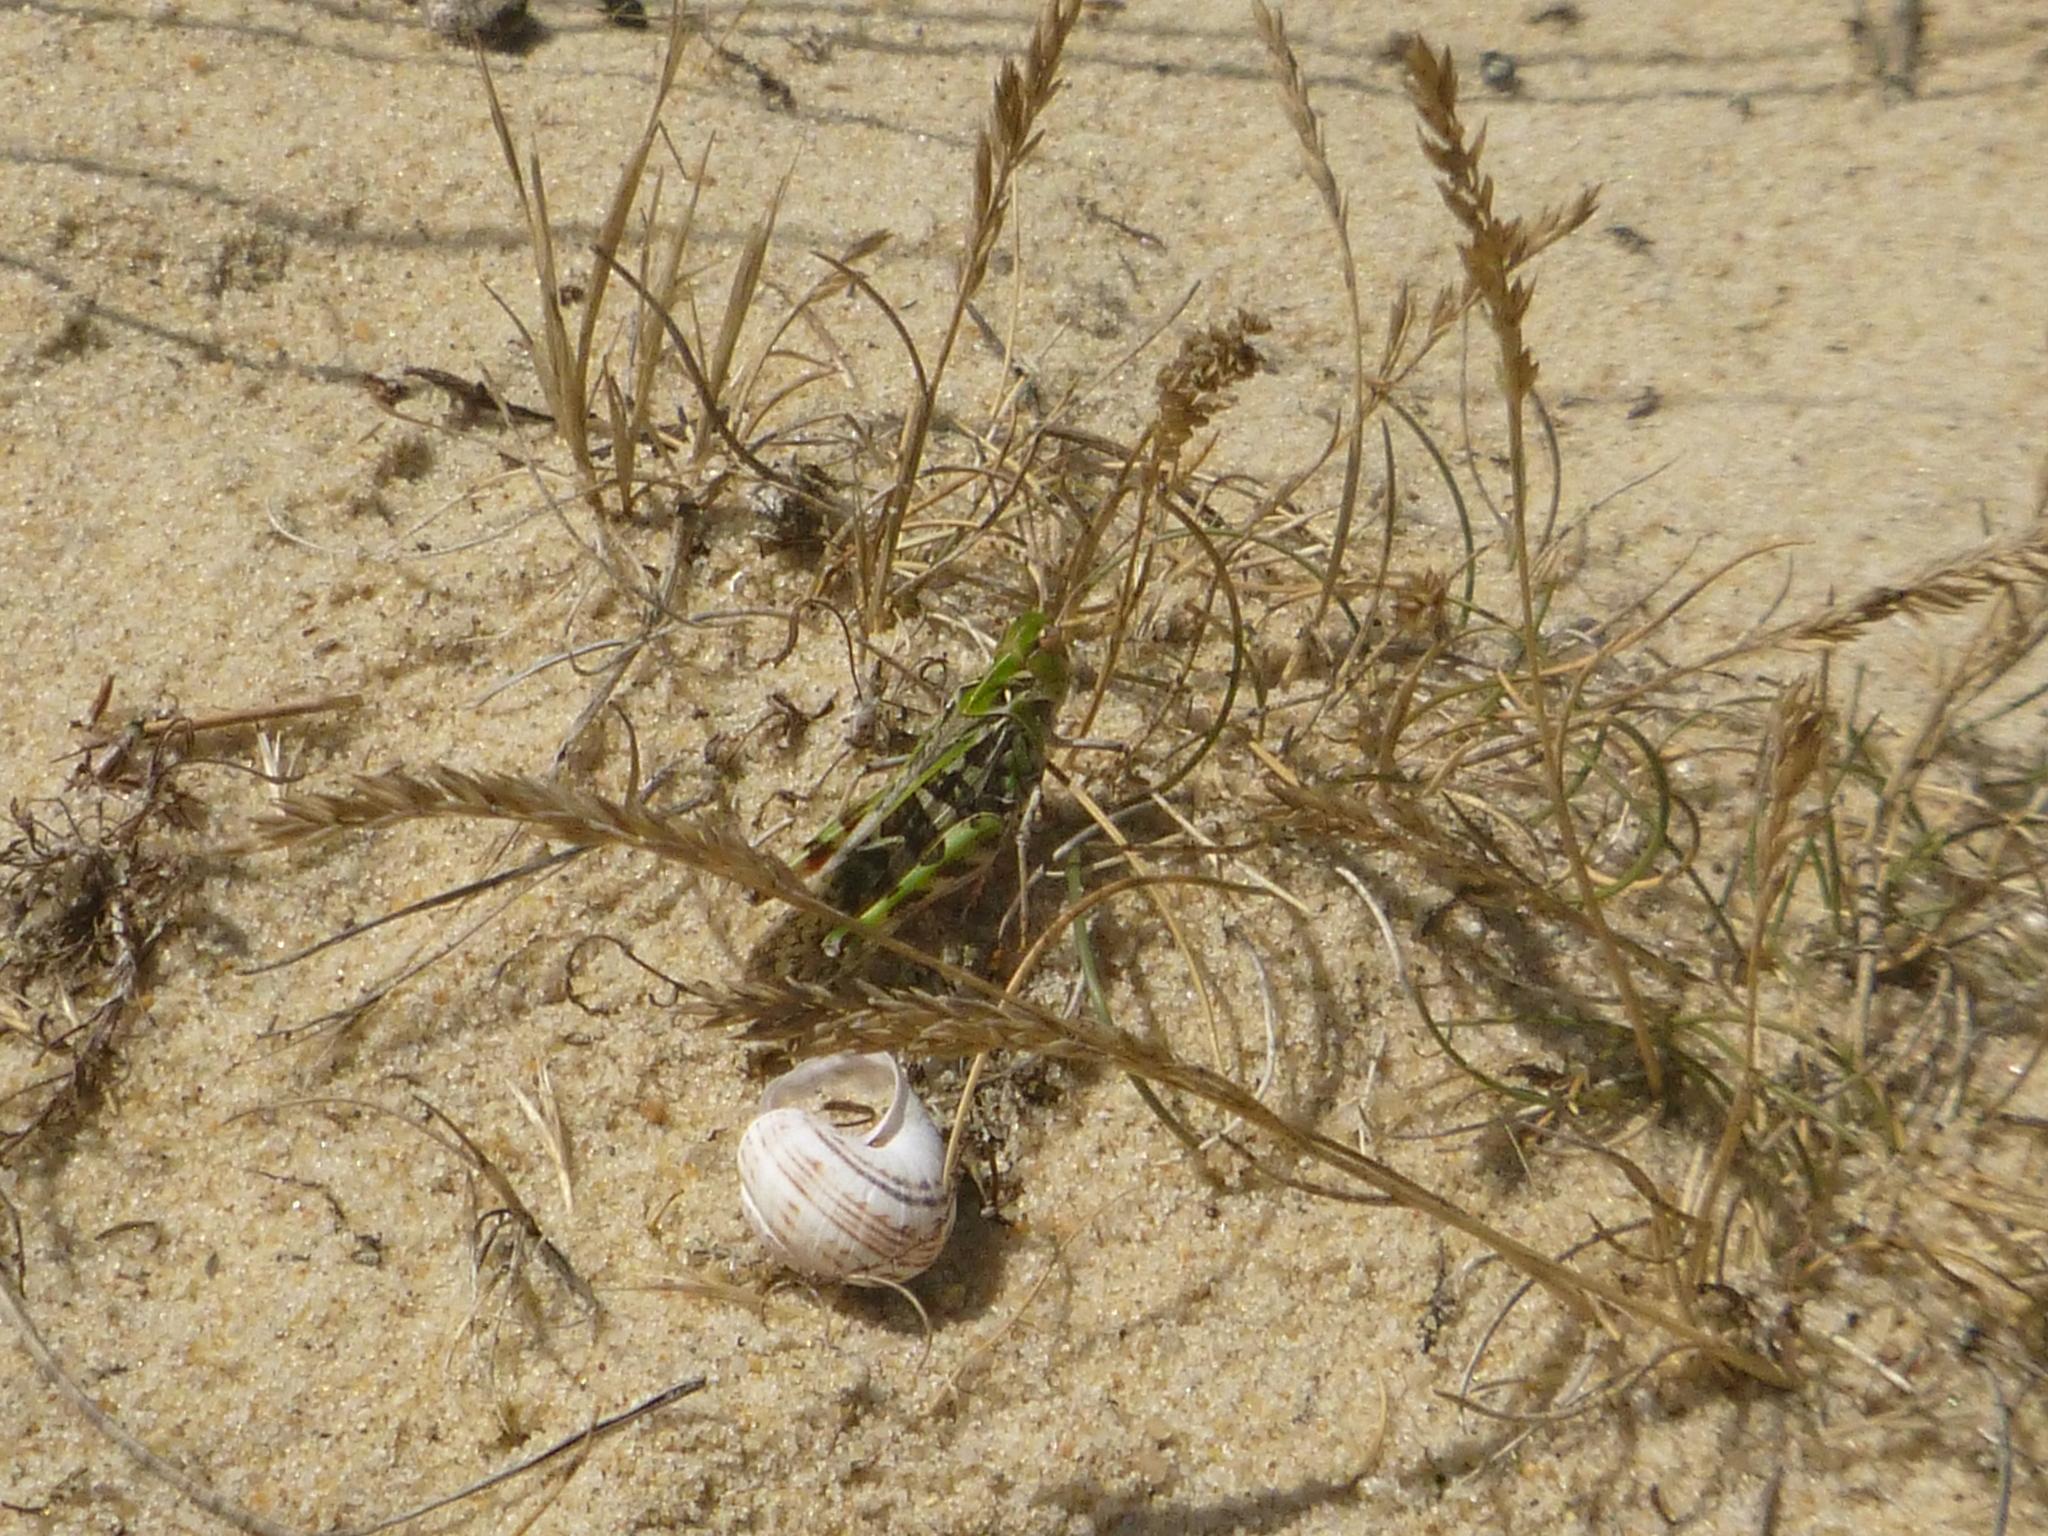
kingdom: Animalia
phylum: Arthropoda
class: Insecta
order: Orthoptera
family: Acrididae
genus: Oedaleus
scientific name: Oedaleus decorus
